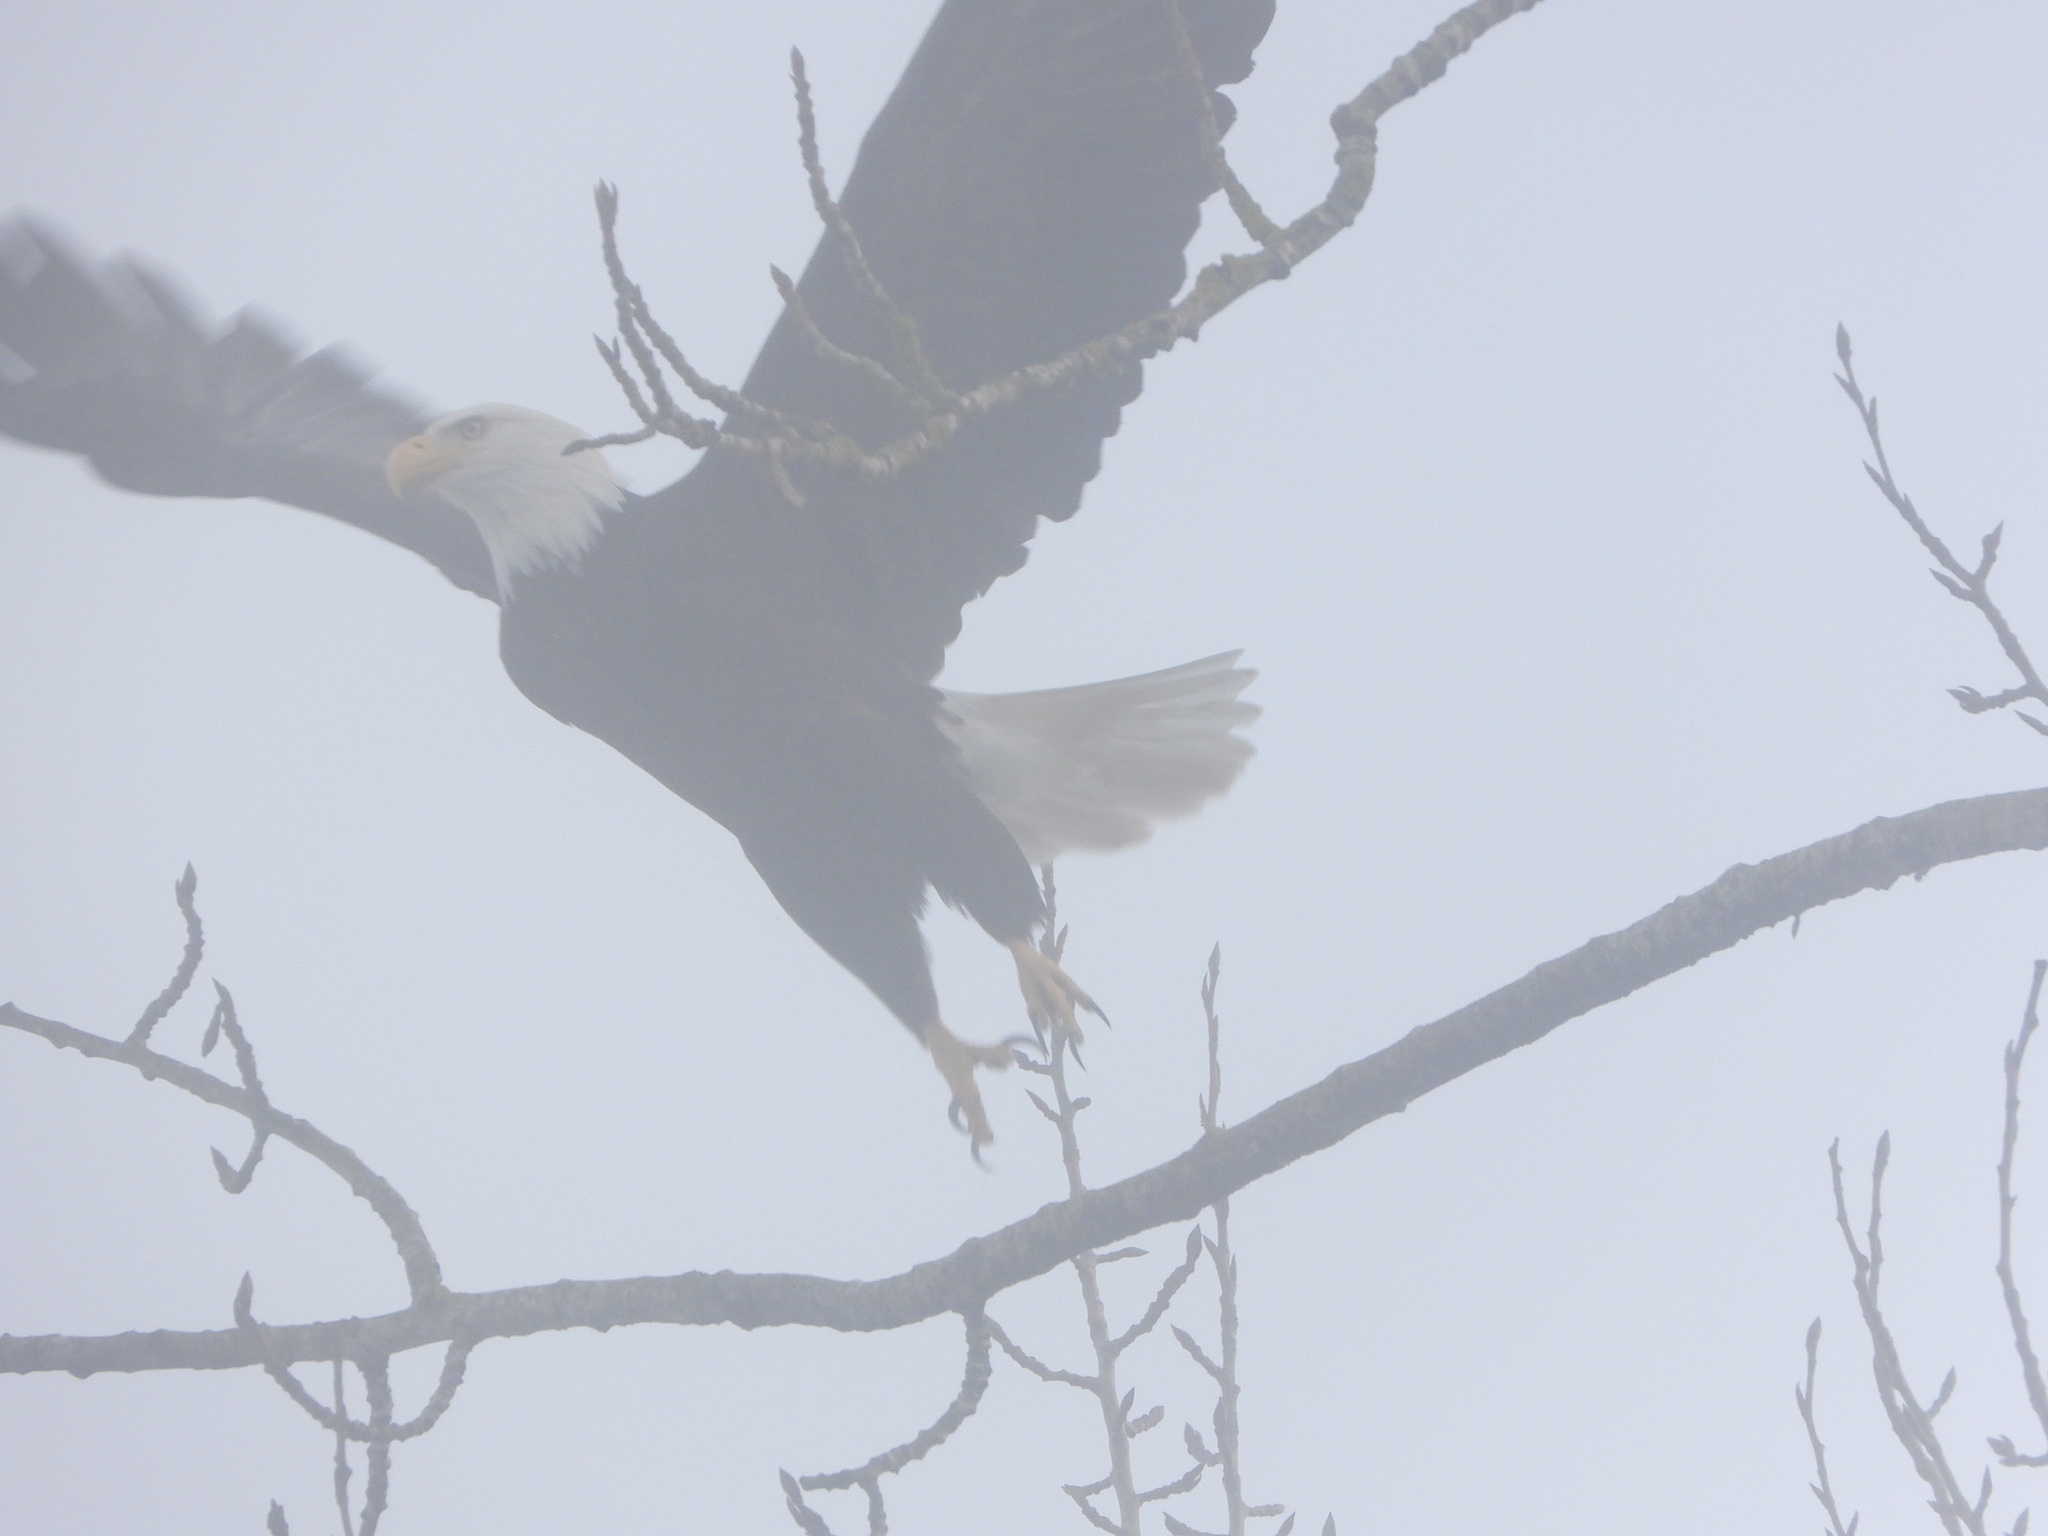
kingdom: Animalia
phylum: Chordata
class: Aves
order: Accipitriformes
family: Accipitridae
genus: Haliaeetus
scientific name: Haliaeetus leucocephalus
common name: Bald eagle
